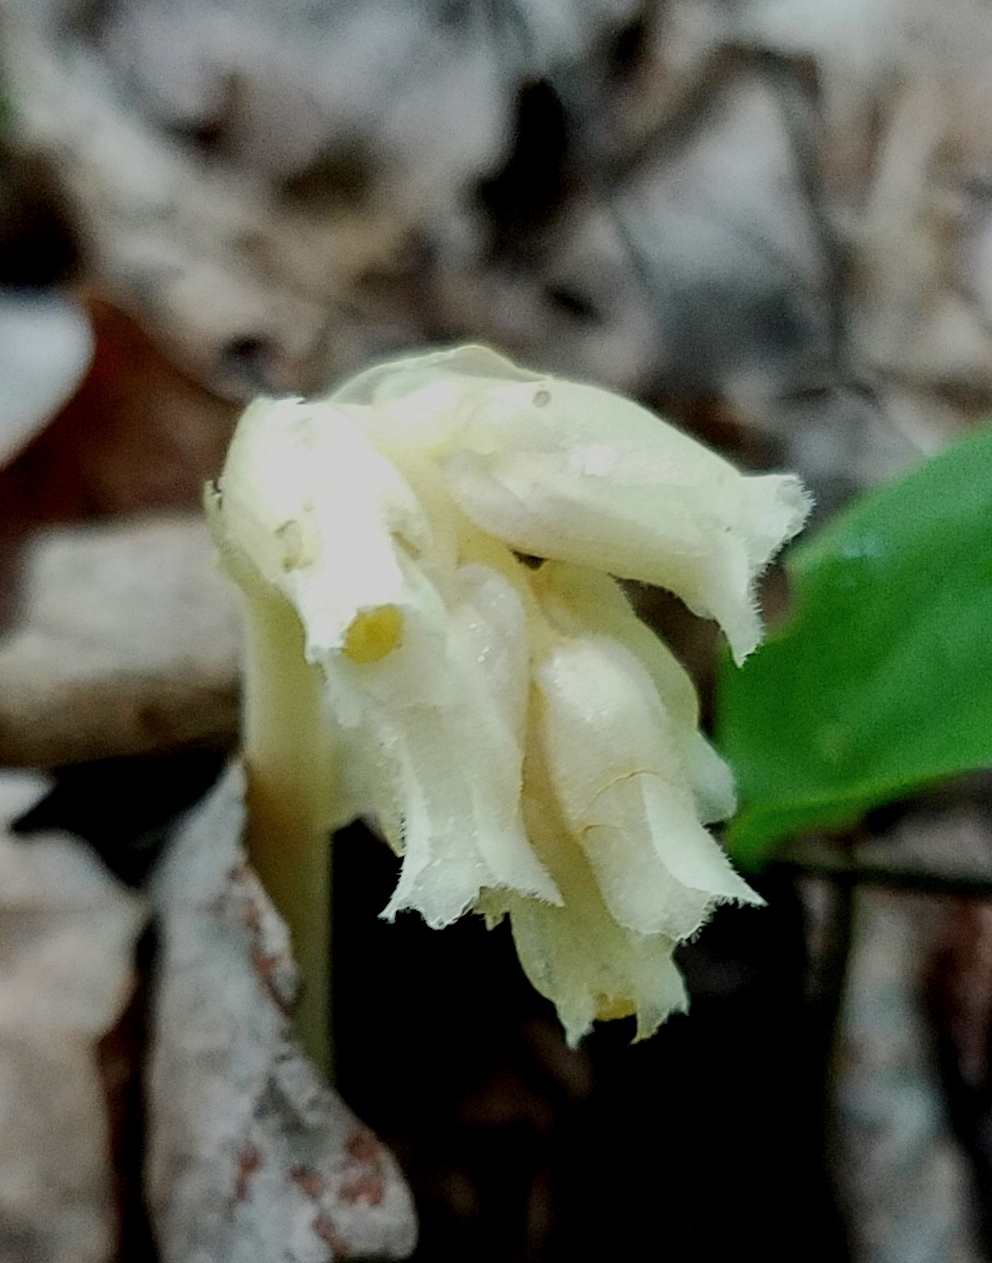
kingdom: Plantae
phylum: Tracheophyta
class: Magnoliopsida
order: Ericales
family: Ericaceae
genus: Hypopitys
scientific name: Hypopitys monotropa
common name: Yellow bird's-nest
